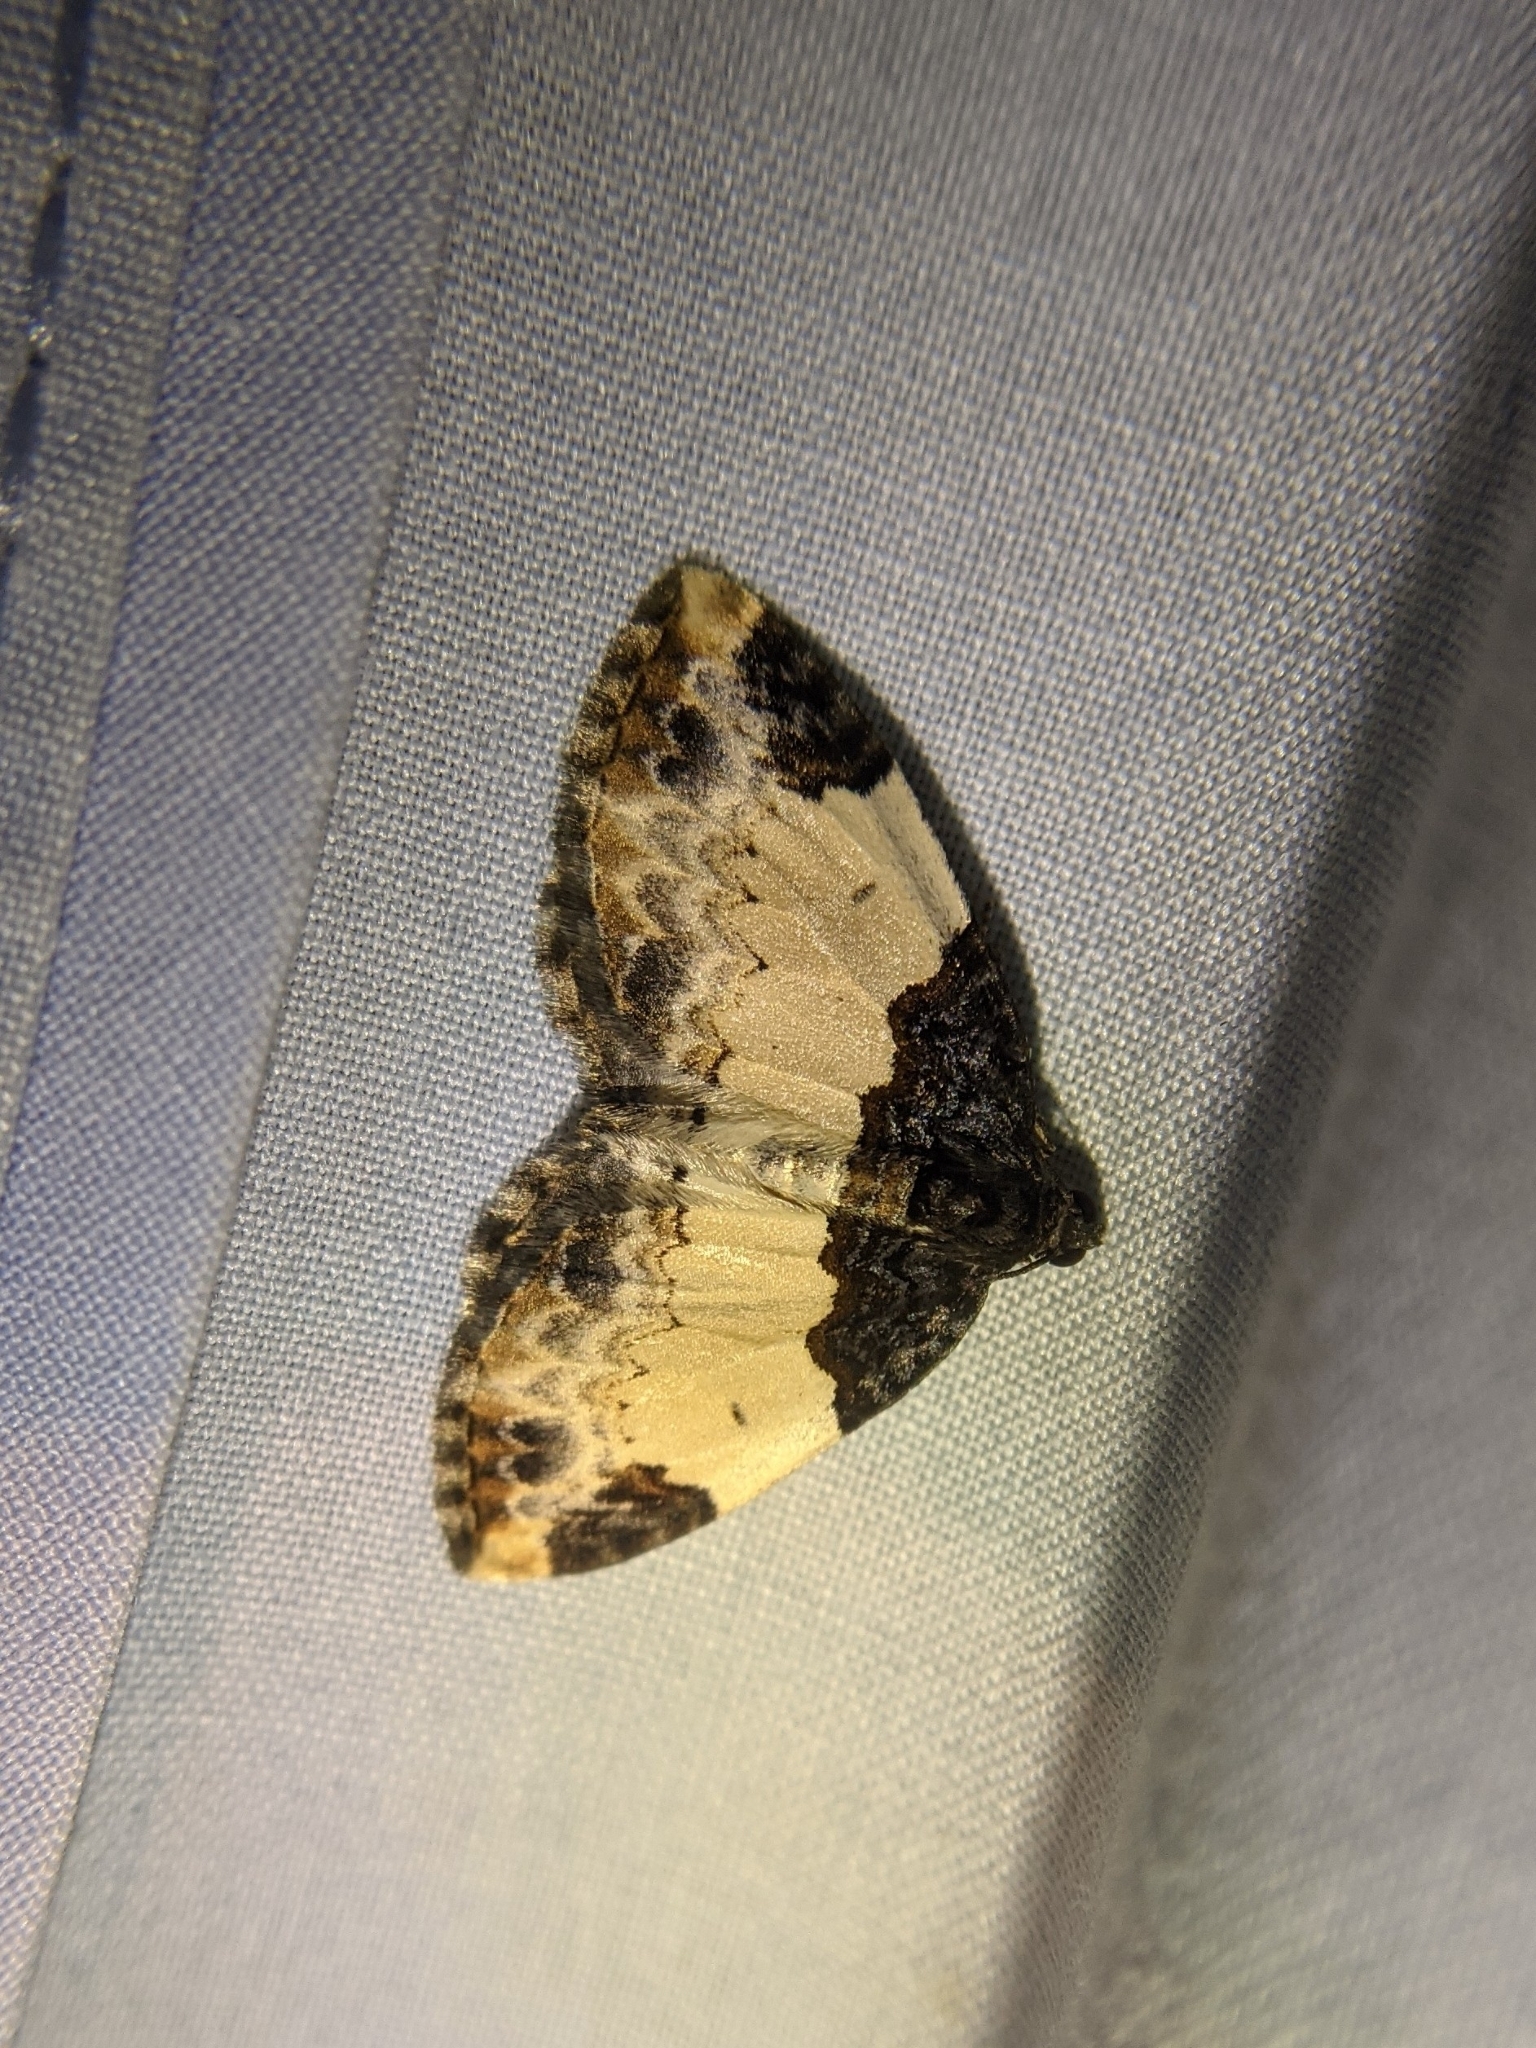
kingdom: Animalia
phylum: Arthropoda
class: Insecta
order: Lepidoptera
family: Geometridae
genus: Mesoleuca
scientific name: Mesoleuca ruficillata
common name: White-ribboned carpet moth
